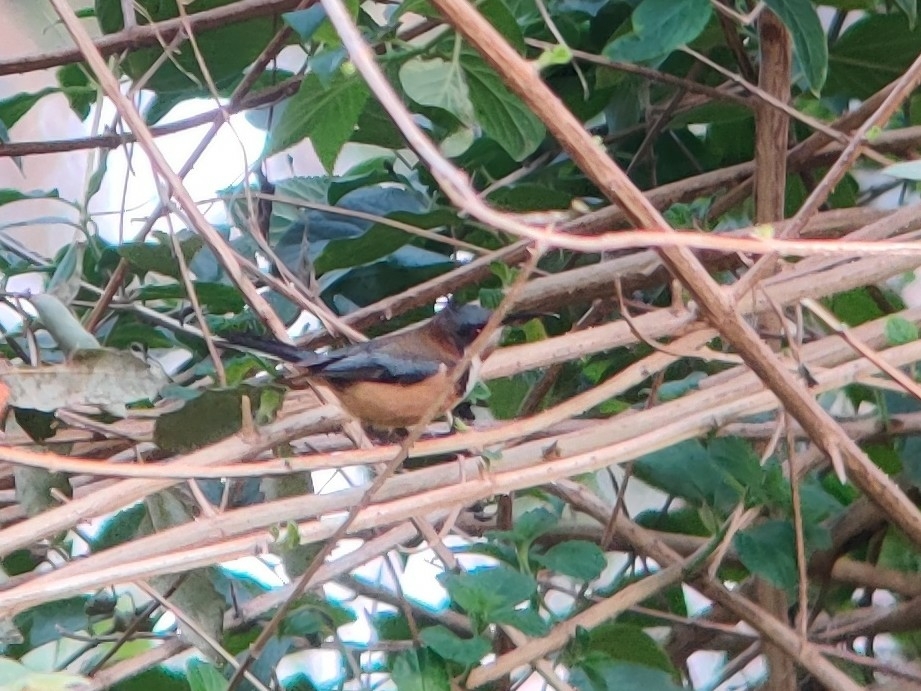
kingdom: Animalia
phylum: Chordata
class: Aves
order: Passeriformes
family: Meliphagidae
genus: Acanthorhynchus
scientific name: Acanthorhynchus tenuirostris
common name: Eastern spinebill
